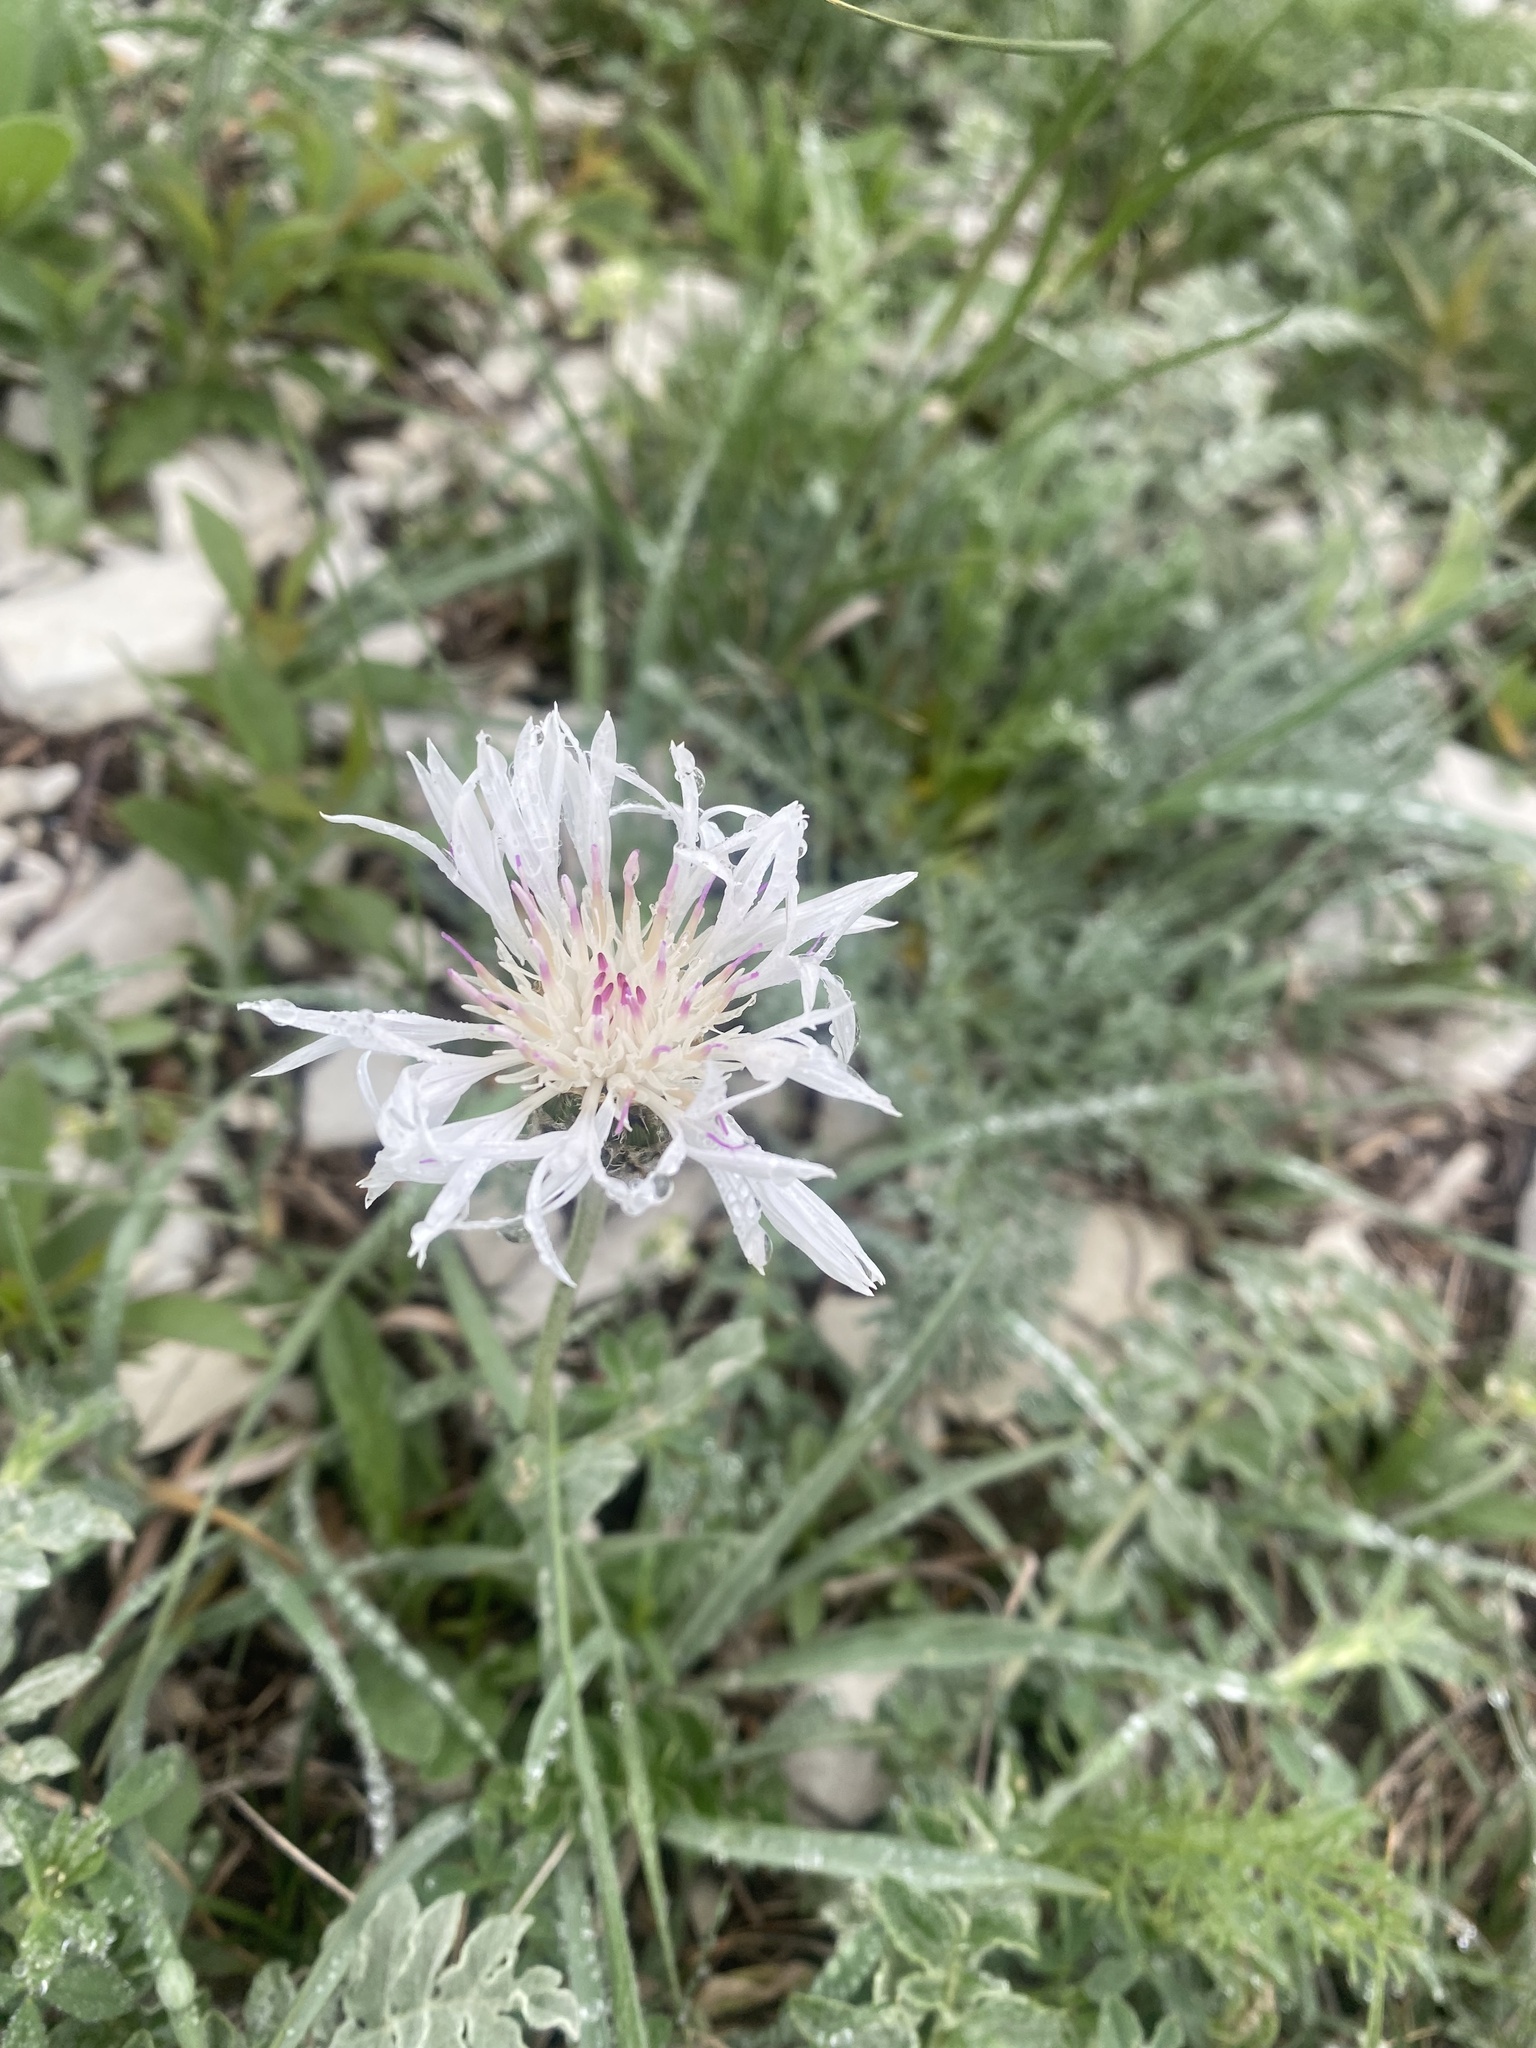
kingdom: Plantae
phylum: Tracheophyta
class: Magnoliopsida
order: Asterales
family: Asteraceae
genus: Psephellus
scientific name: Psephellus declinatus
